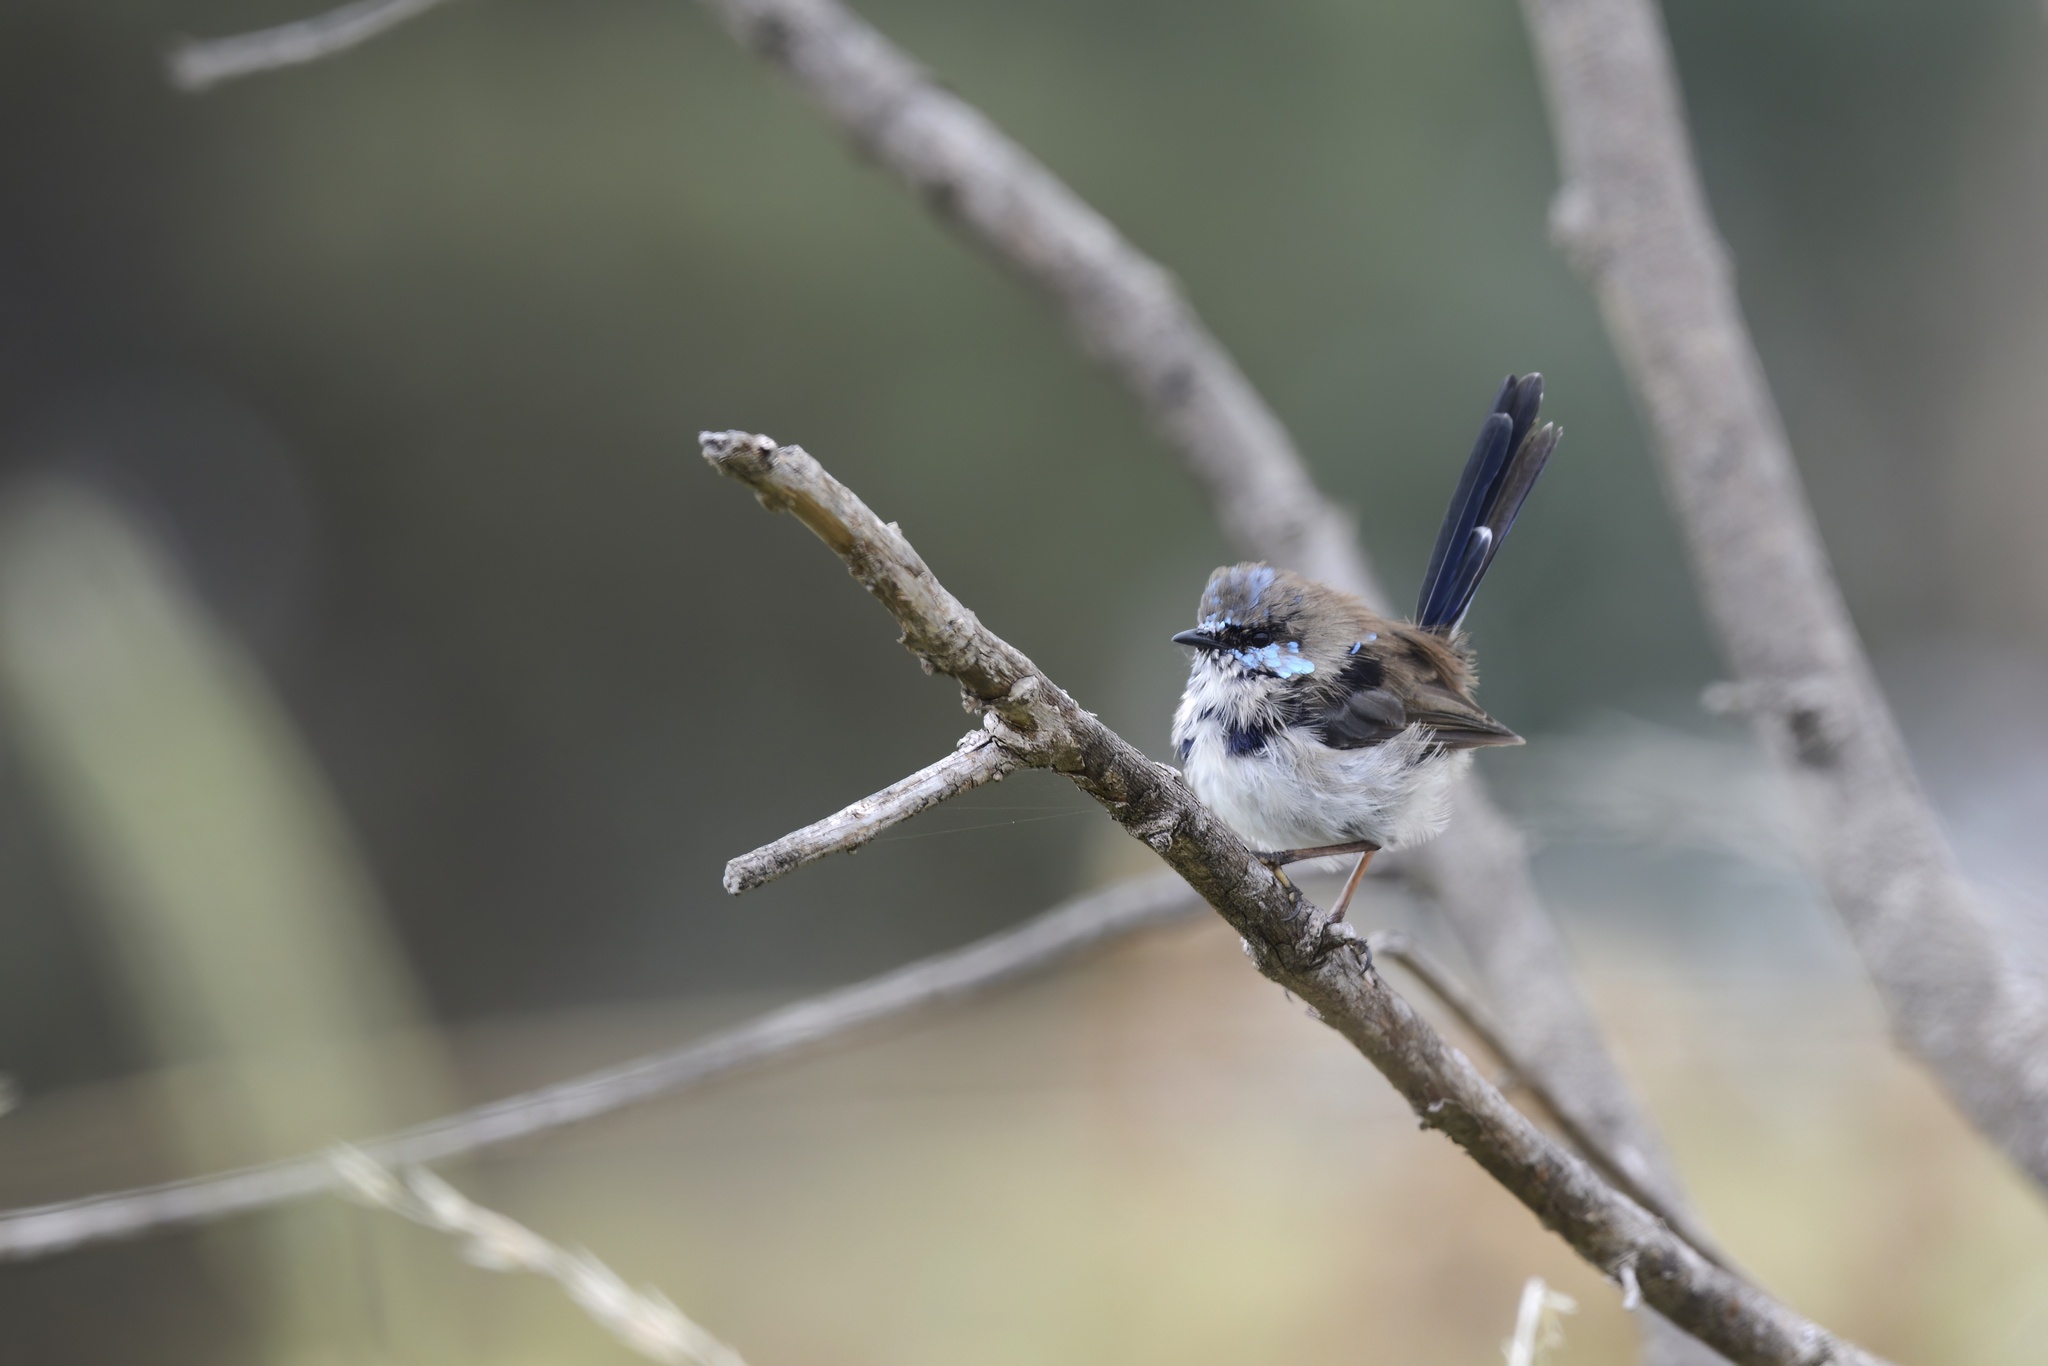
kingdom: Animalia
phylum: Chordata
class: Aves
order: Passeriformes
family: Maluridae
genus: Malurus
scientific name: Malurus cyaneus
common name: Superb fairywren
